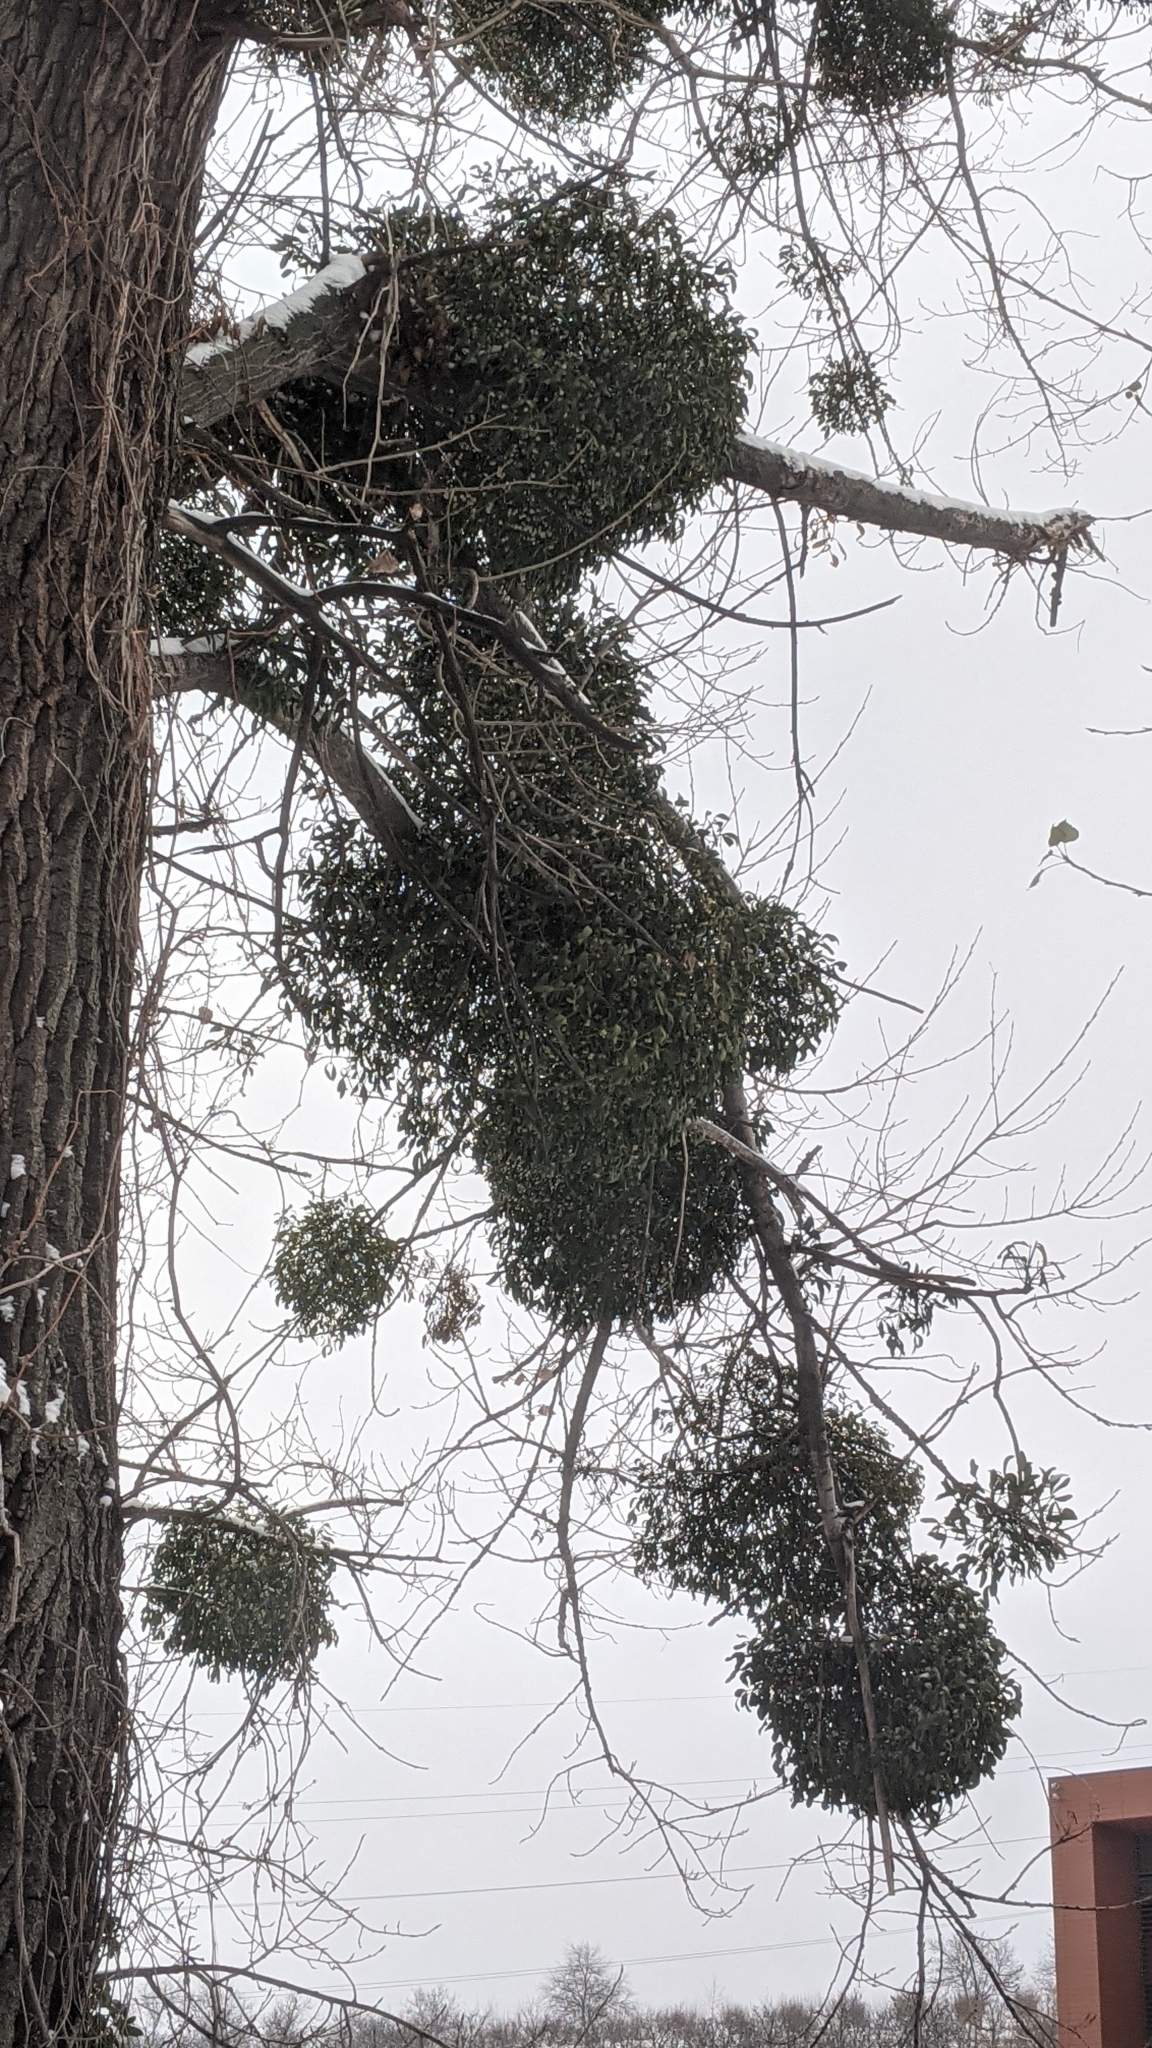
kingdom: Plantae
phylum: Tracheophyta
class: Magnoliopsida
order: Santalales
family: Viscaceae
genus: Viscum
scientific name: Viscum album
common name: Mistletoe
